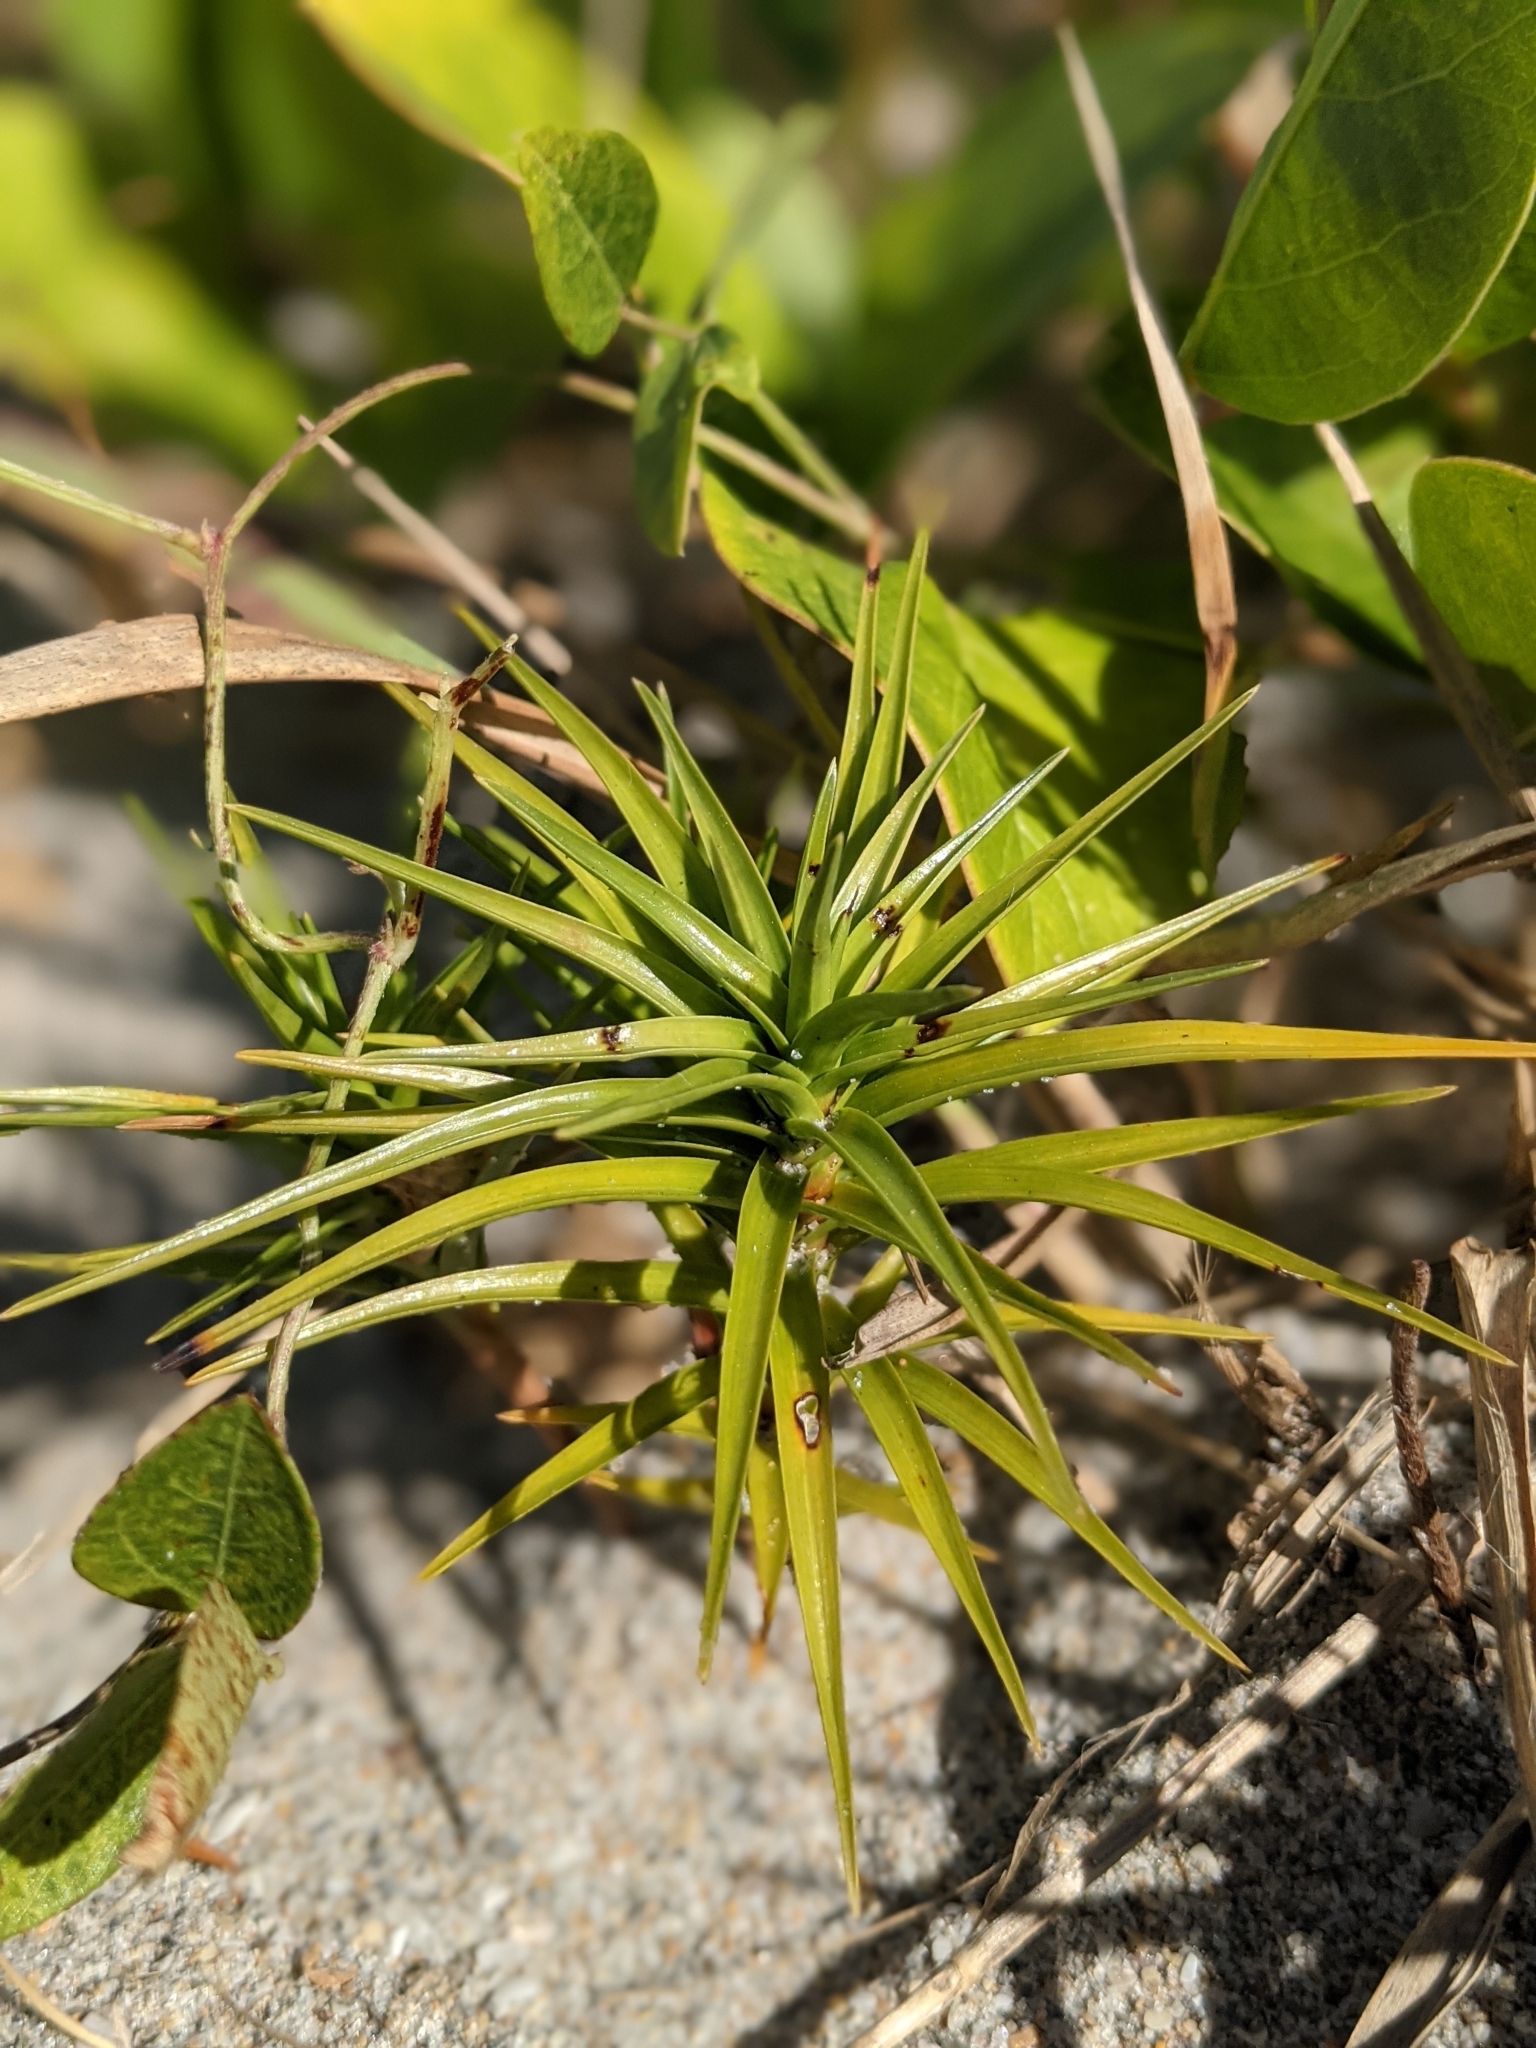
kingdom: Plantae
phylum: Tracheophyta
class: Liliopsida
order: Poales
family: Cyperaceae
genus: Cyperus
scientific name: Cyperus pedunculatus
